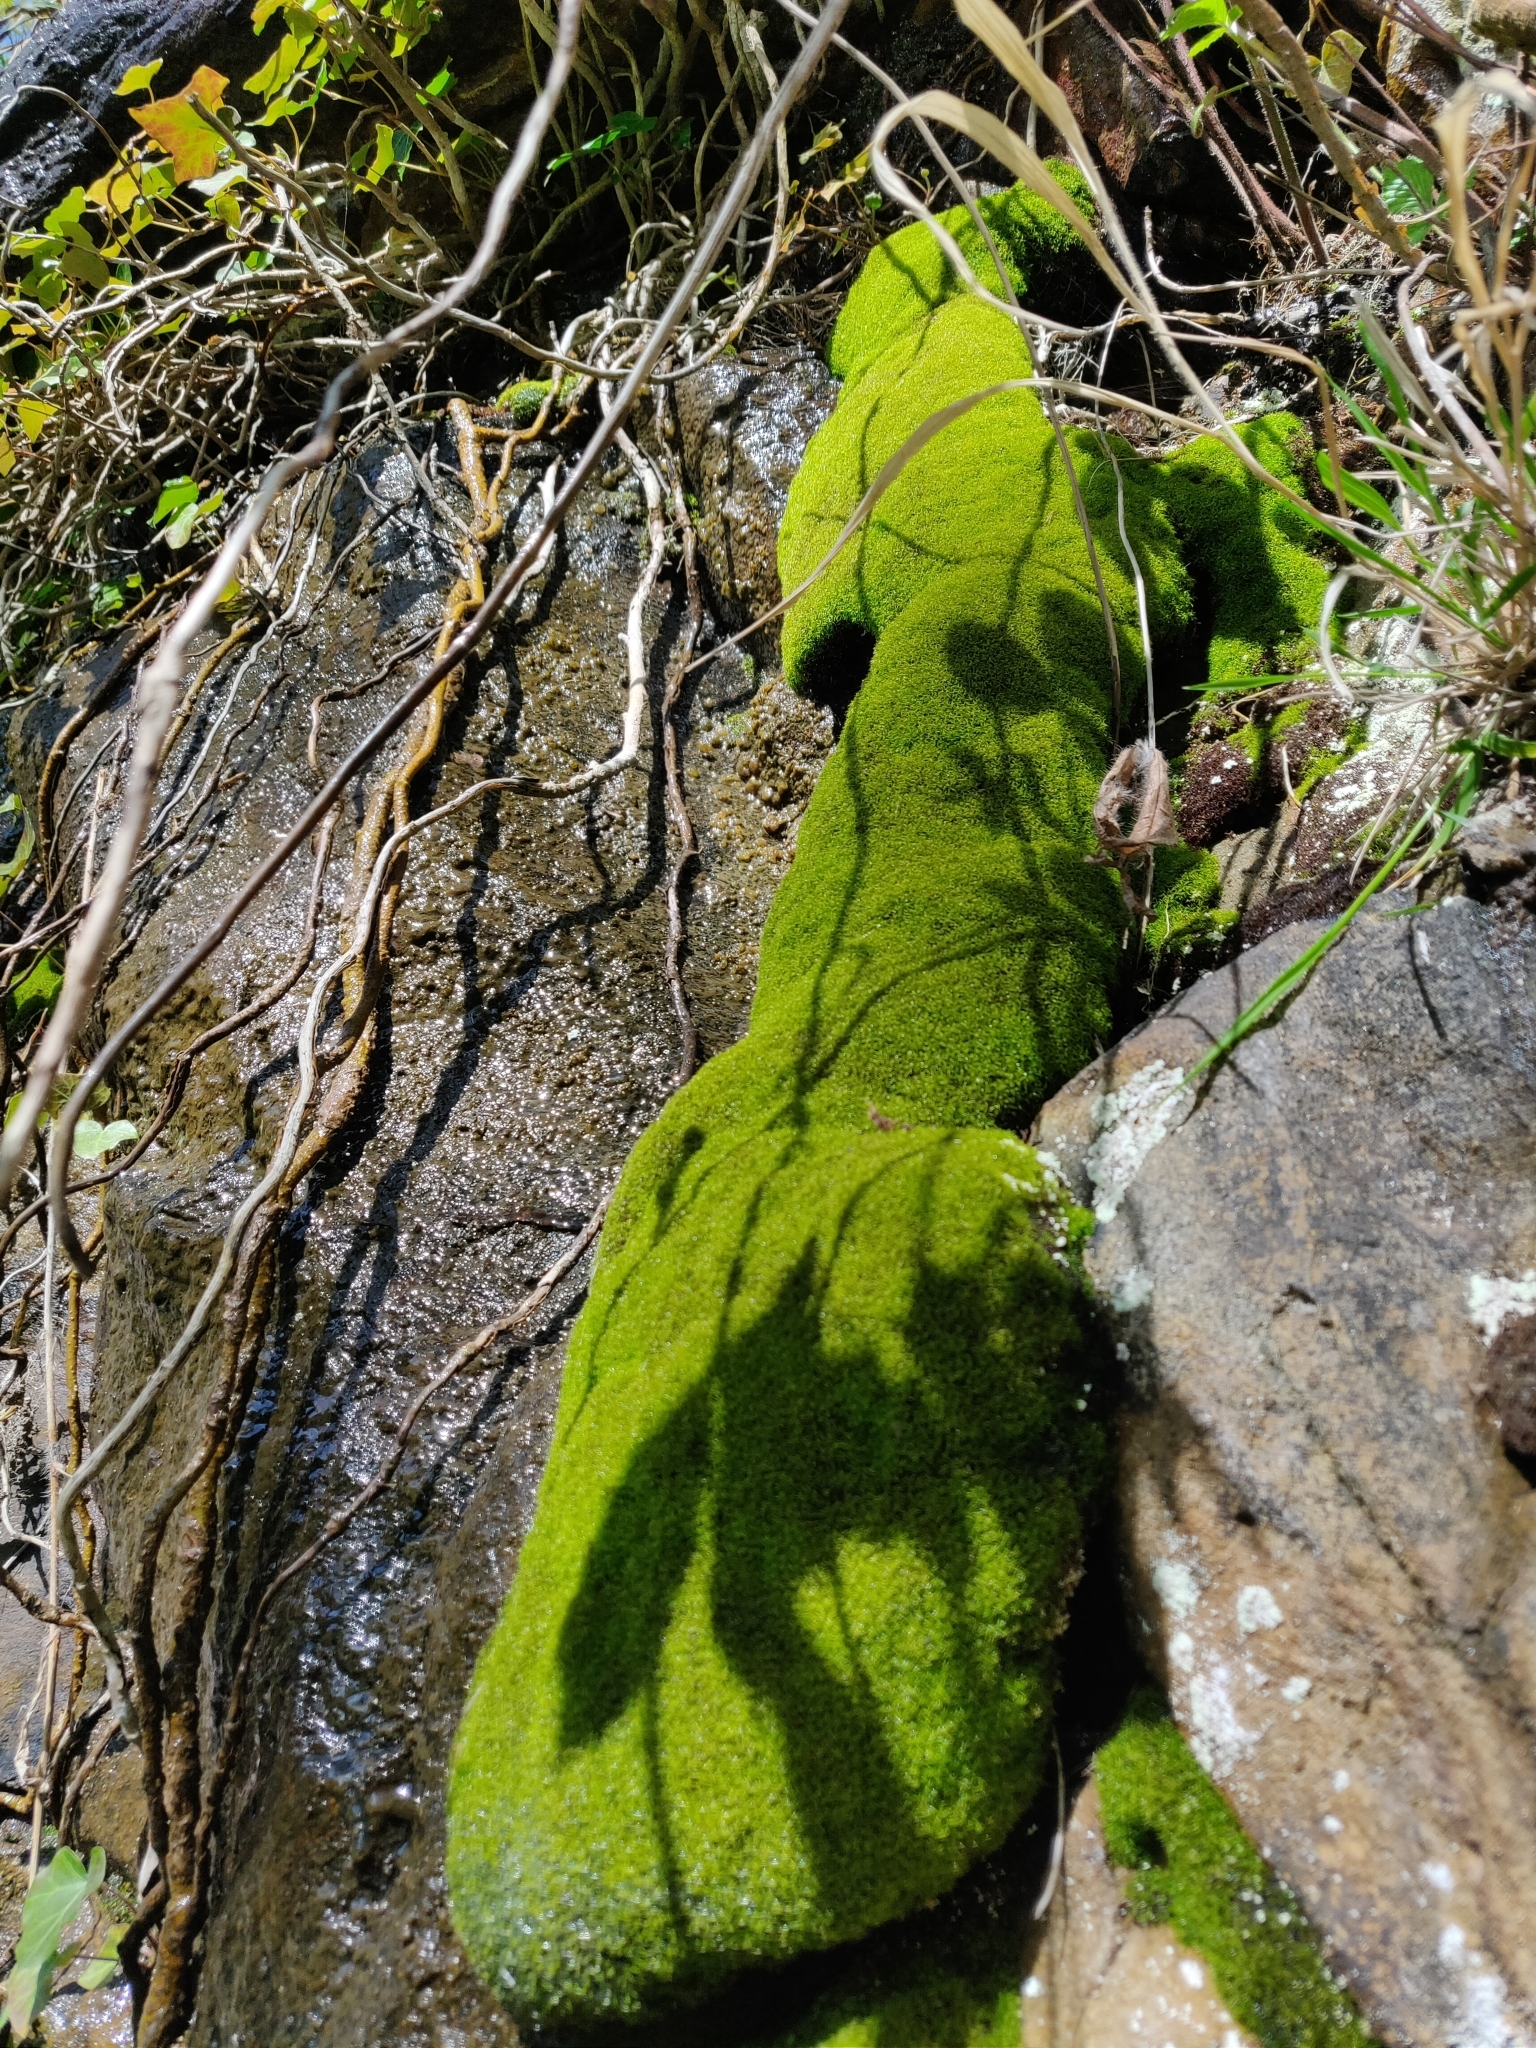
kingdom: Plantae
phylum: Bryophyta
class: Bryopsida
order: Dicranales
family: Amphidiaceae
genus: Amphidium
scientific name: Amphidium mougeotii
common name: Mougeot's yoke moss
